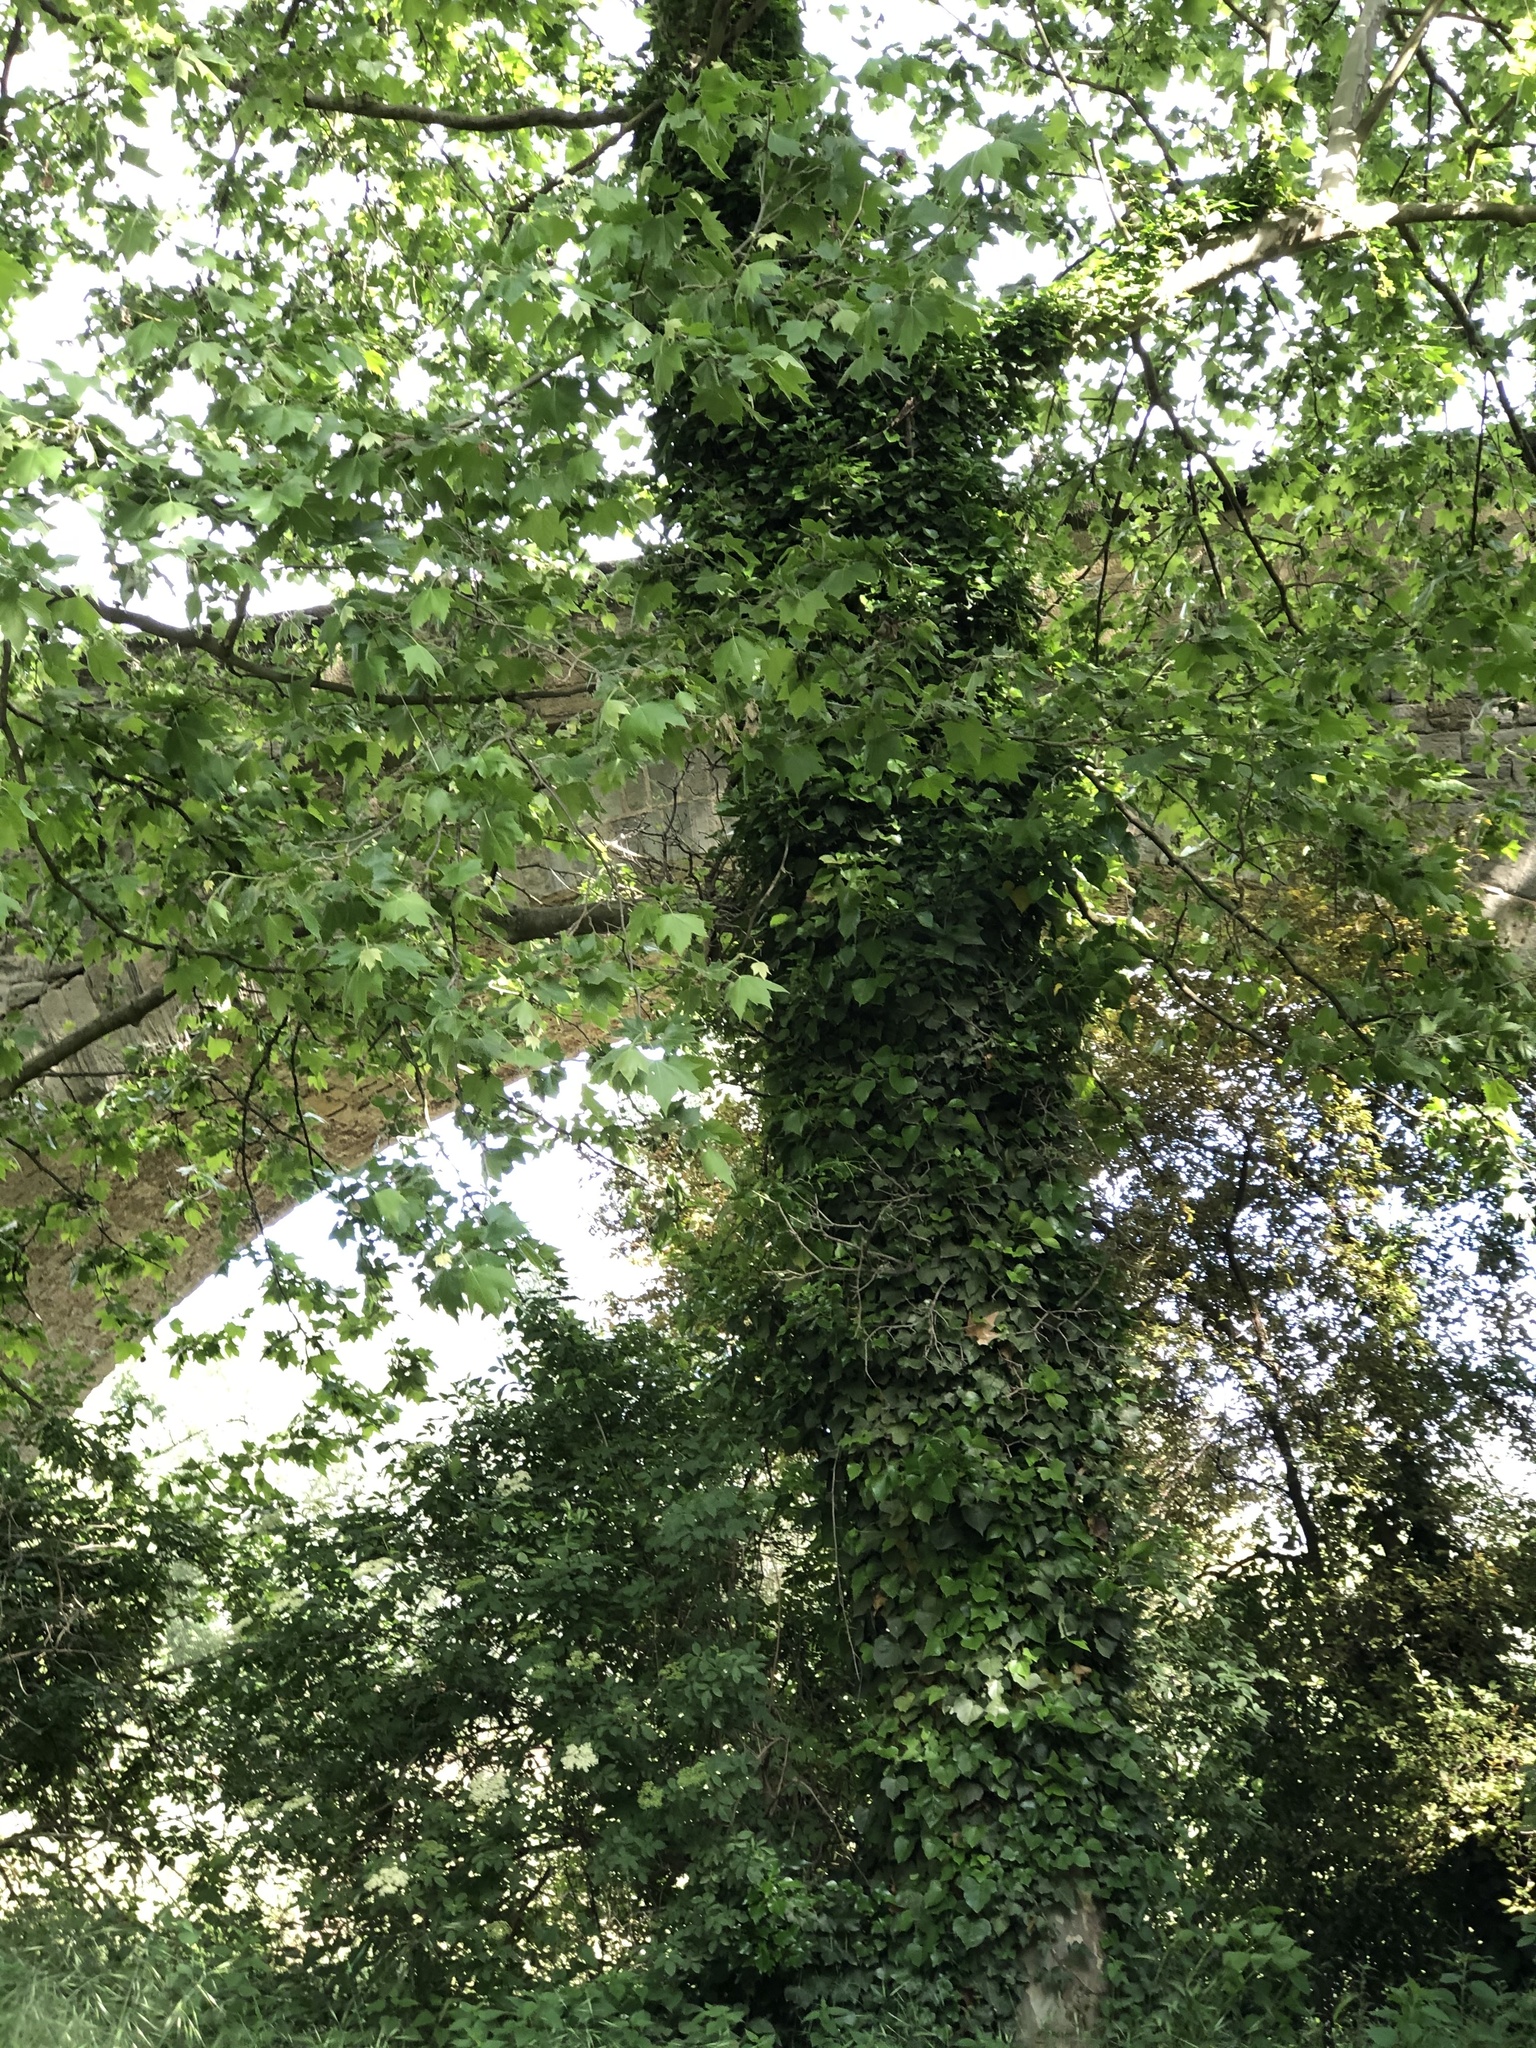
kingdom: Plantae
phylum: Tracheophyta
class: Magnoliopsida
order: Apiales
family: Araliaceae
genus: Hedera
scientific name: Hedera helix
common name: Ivy
